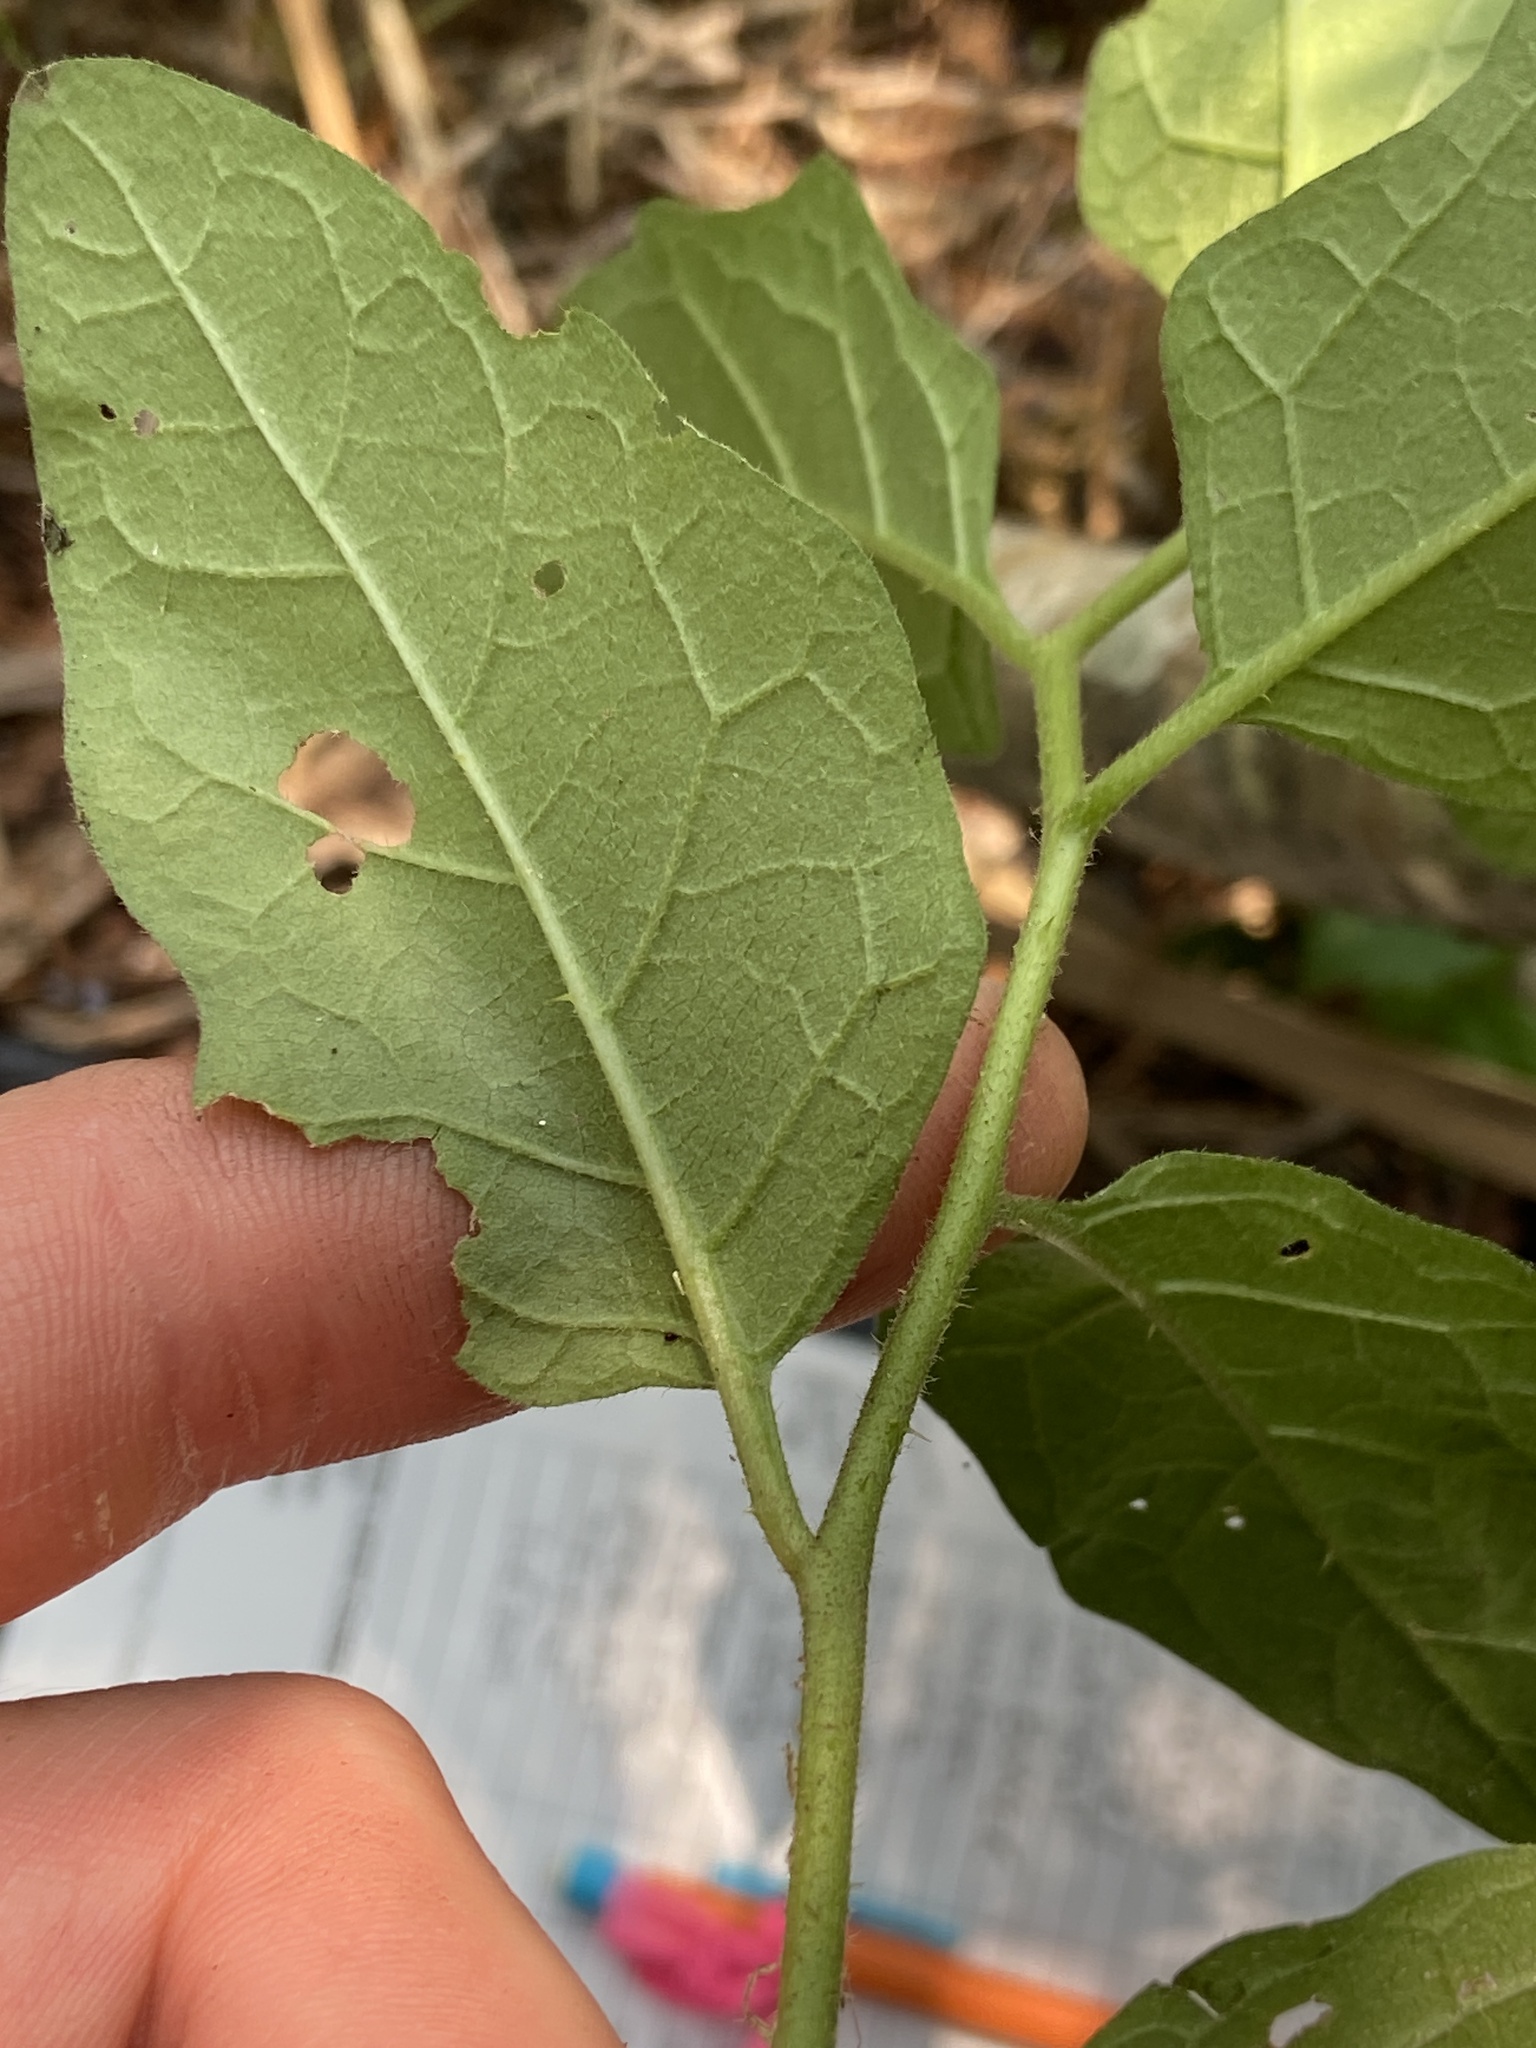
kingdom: Plantae
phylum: Tracheophyta
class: Magnoliopsida
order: Solanales
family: Solanaceae
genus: Solanum
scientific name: Solanum carolinense
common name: Horse-nettle
